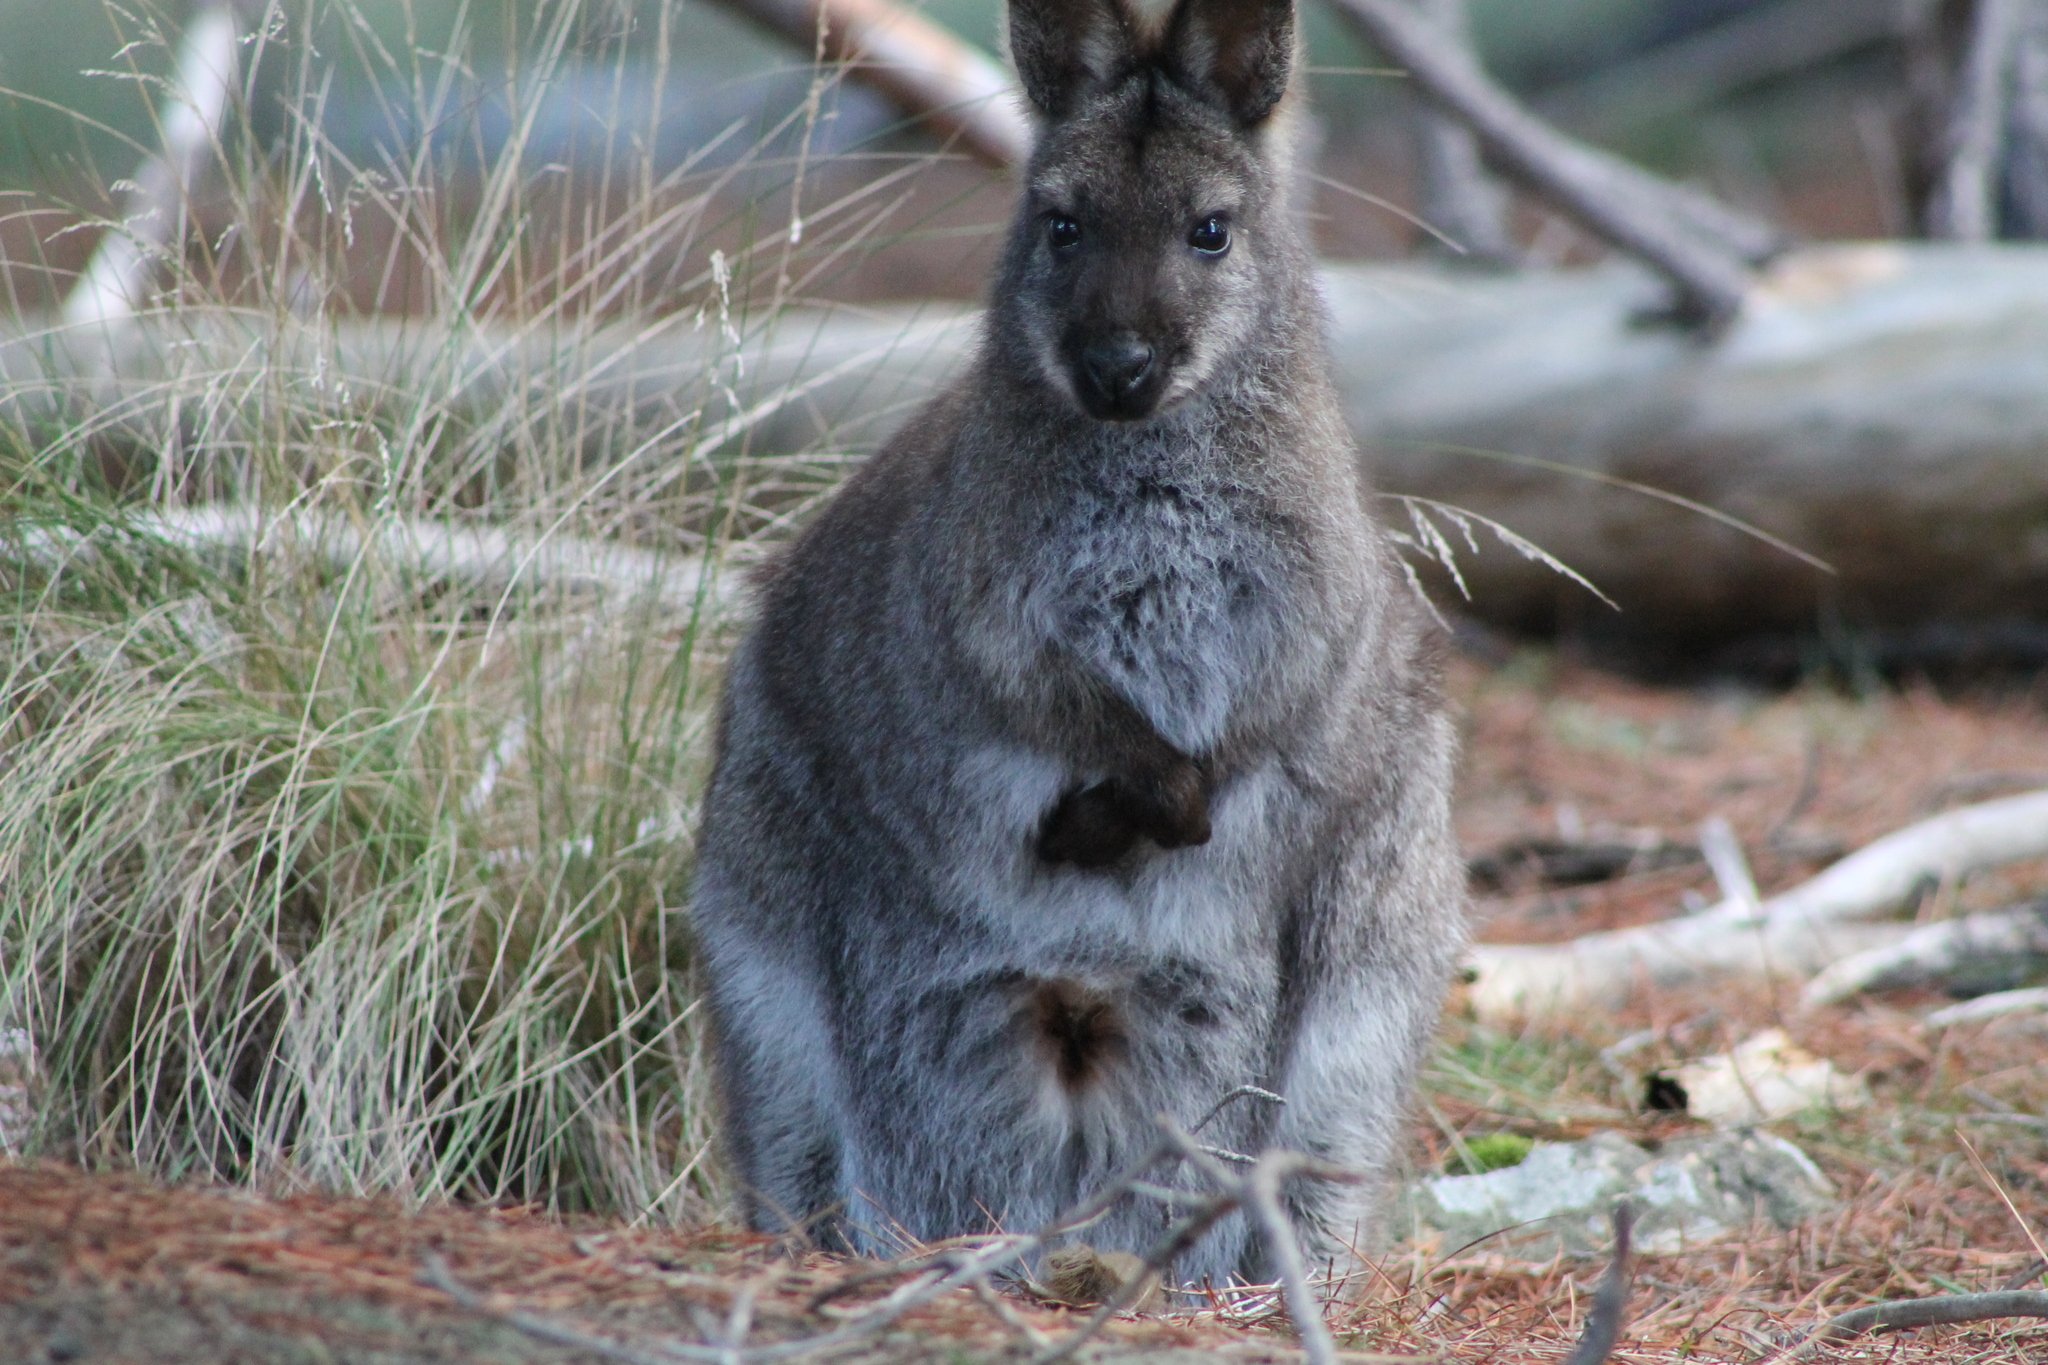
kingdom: Animalia
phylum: Chordata
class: Mammalia
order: Diprotodontia
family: Macropodidae
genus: Notamacropus
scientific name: Notamacropus rufogriseus
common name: Red-necked wallaby
